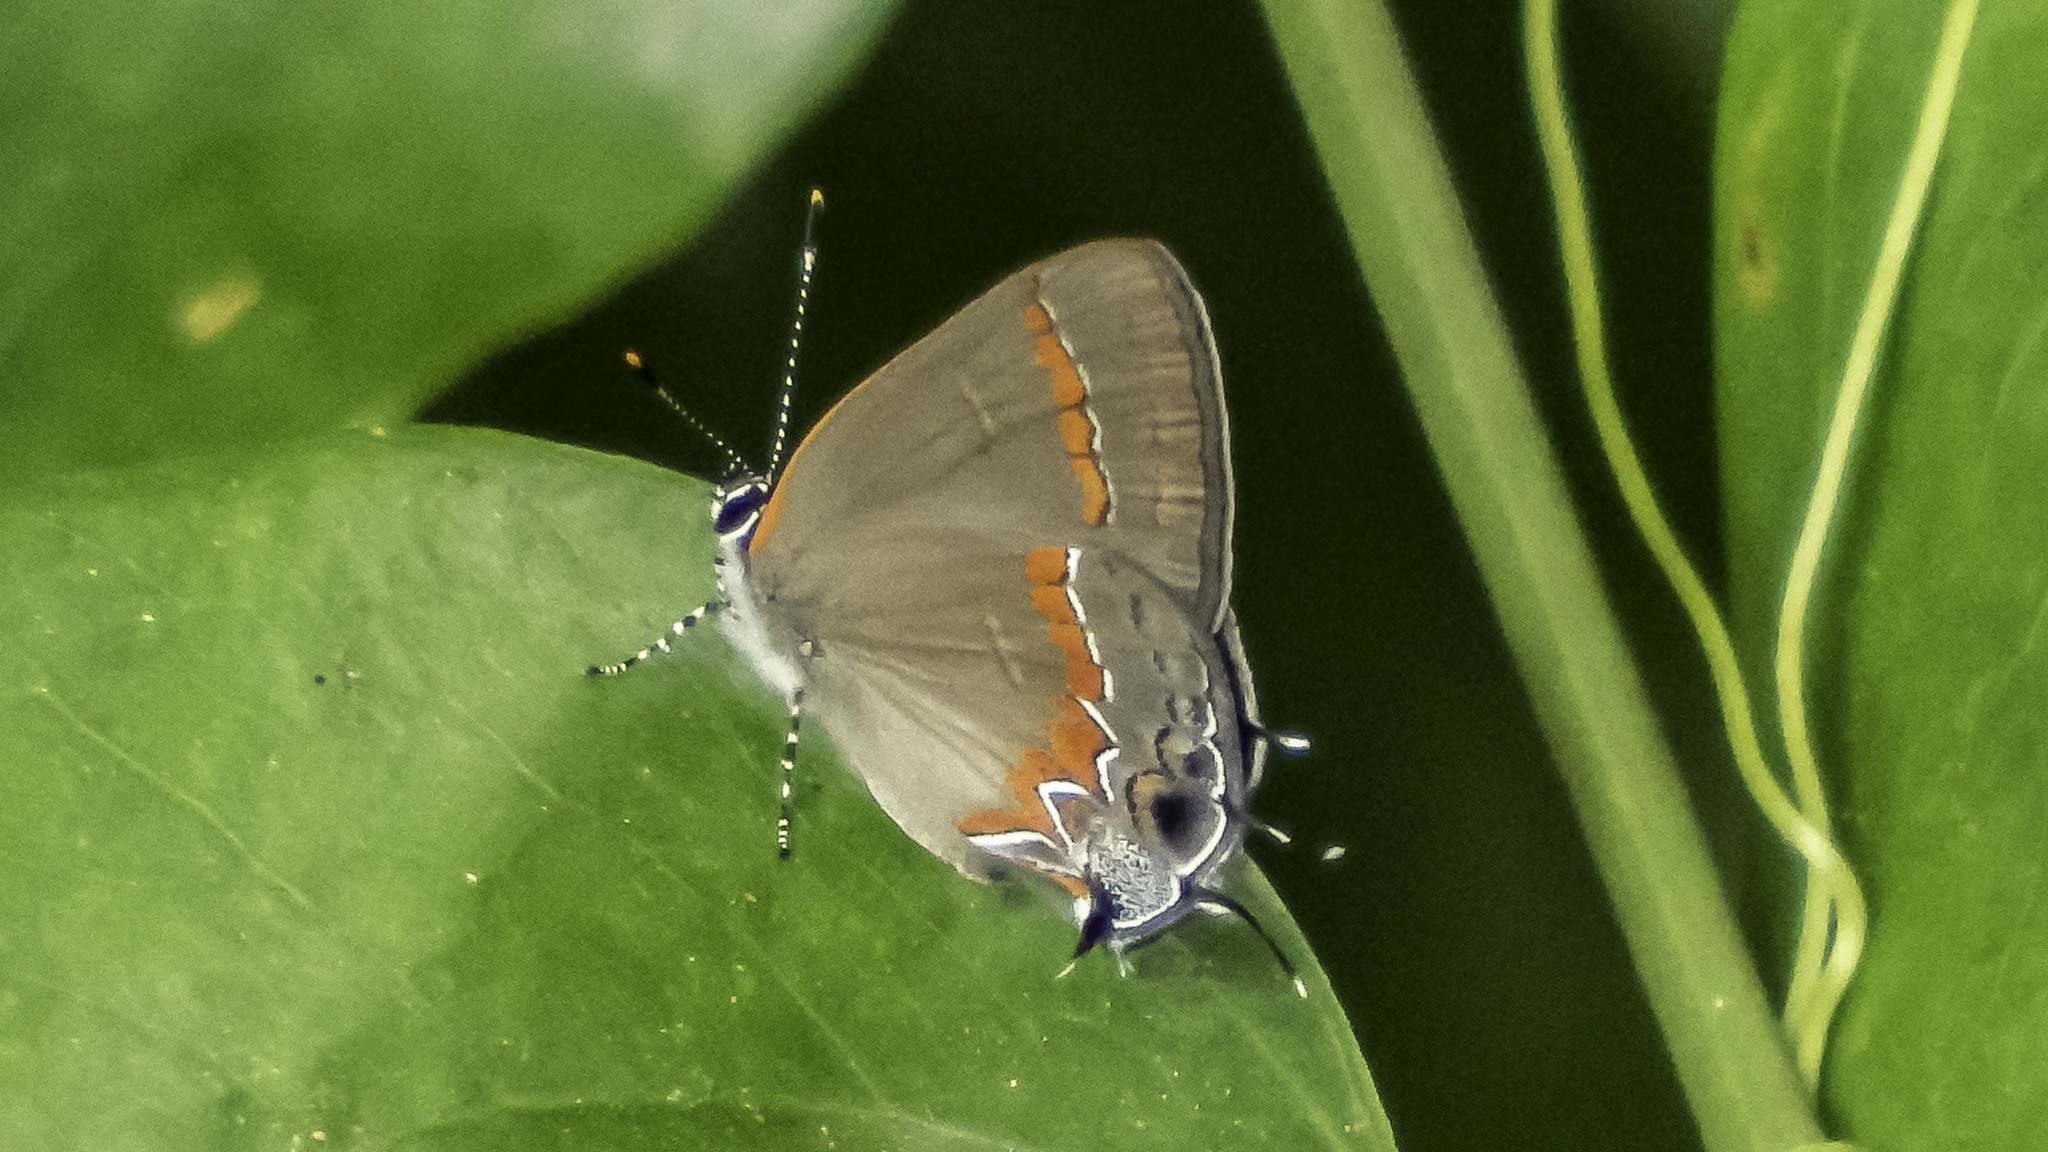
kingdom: Animalia
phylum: Arthropoda
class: Insecta
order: Lepidoptera
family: Lycaenidae
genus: Calycopis
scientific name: Calycopis cecrops
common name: Red-banded hairstreak
